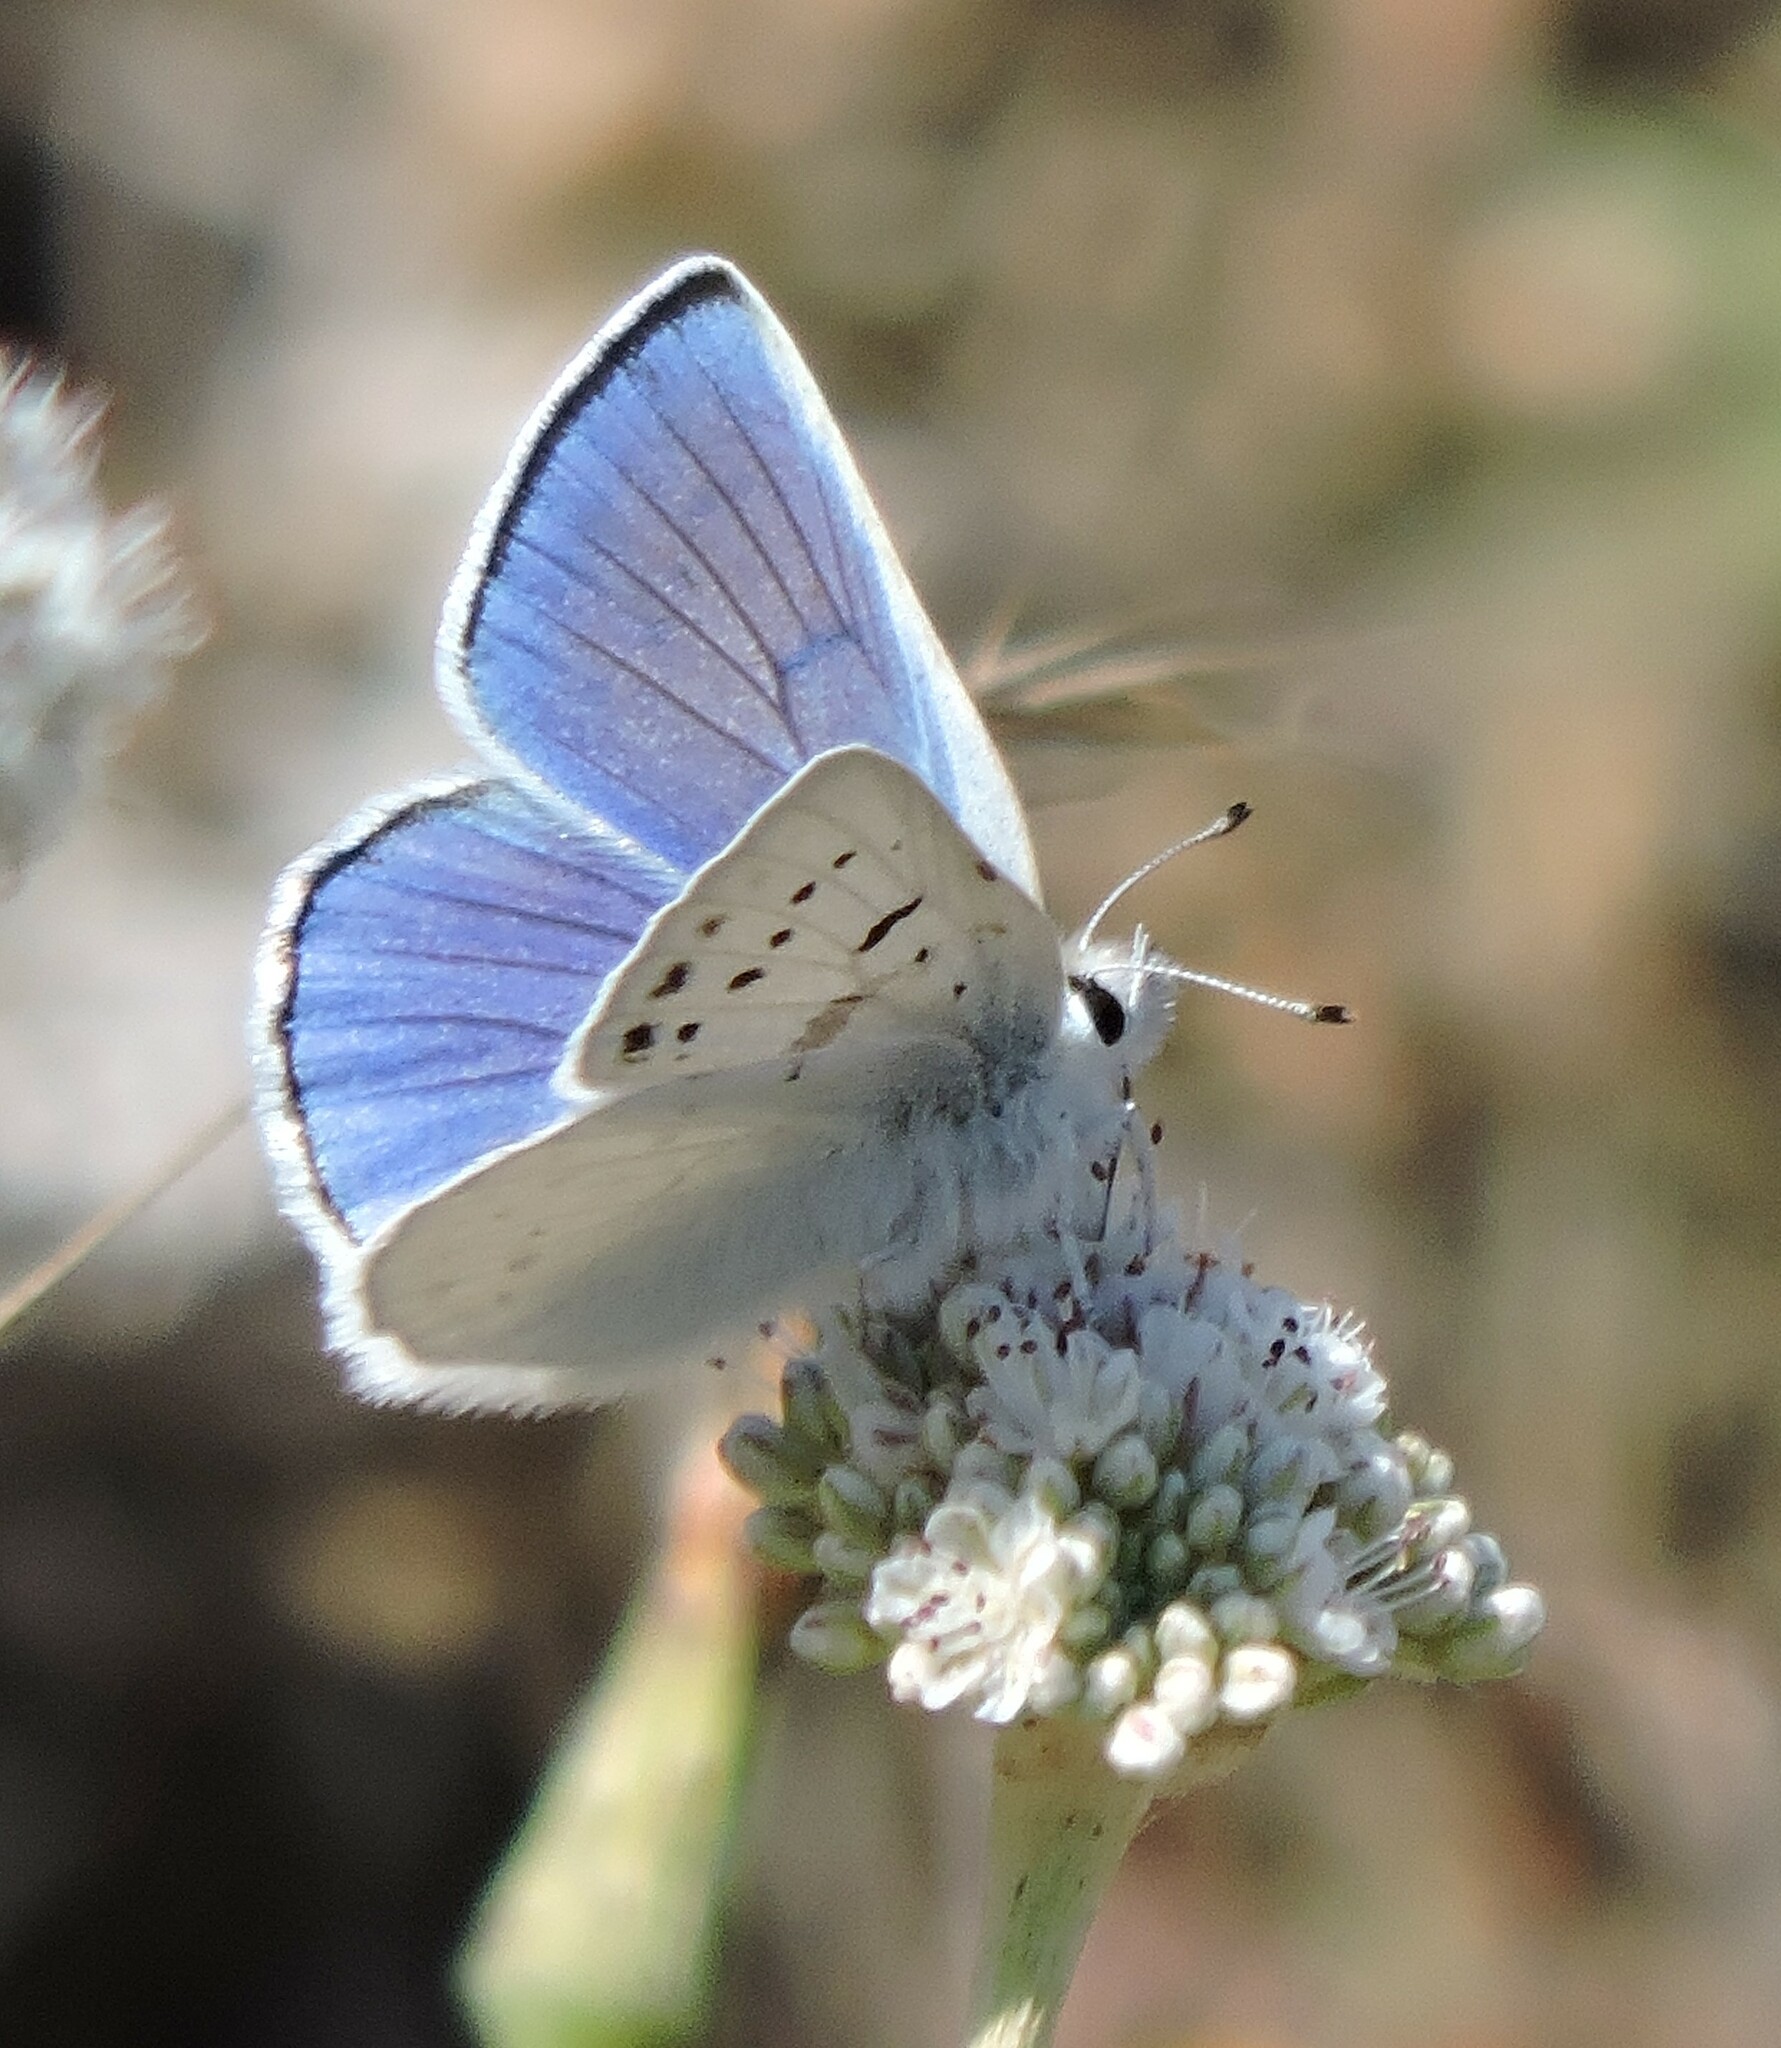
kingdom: Animalia
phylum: Arthropoda
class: Insecta
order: Lepidoptera
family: Lycaenidae
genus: Tharsalea
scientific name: Tharsalea heteronea
